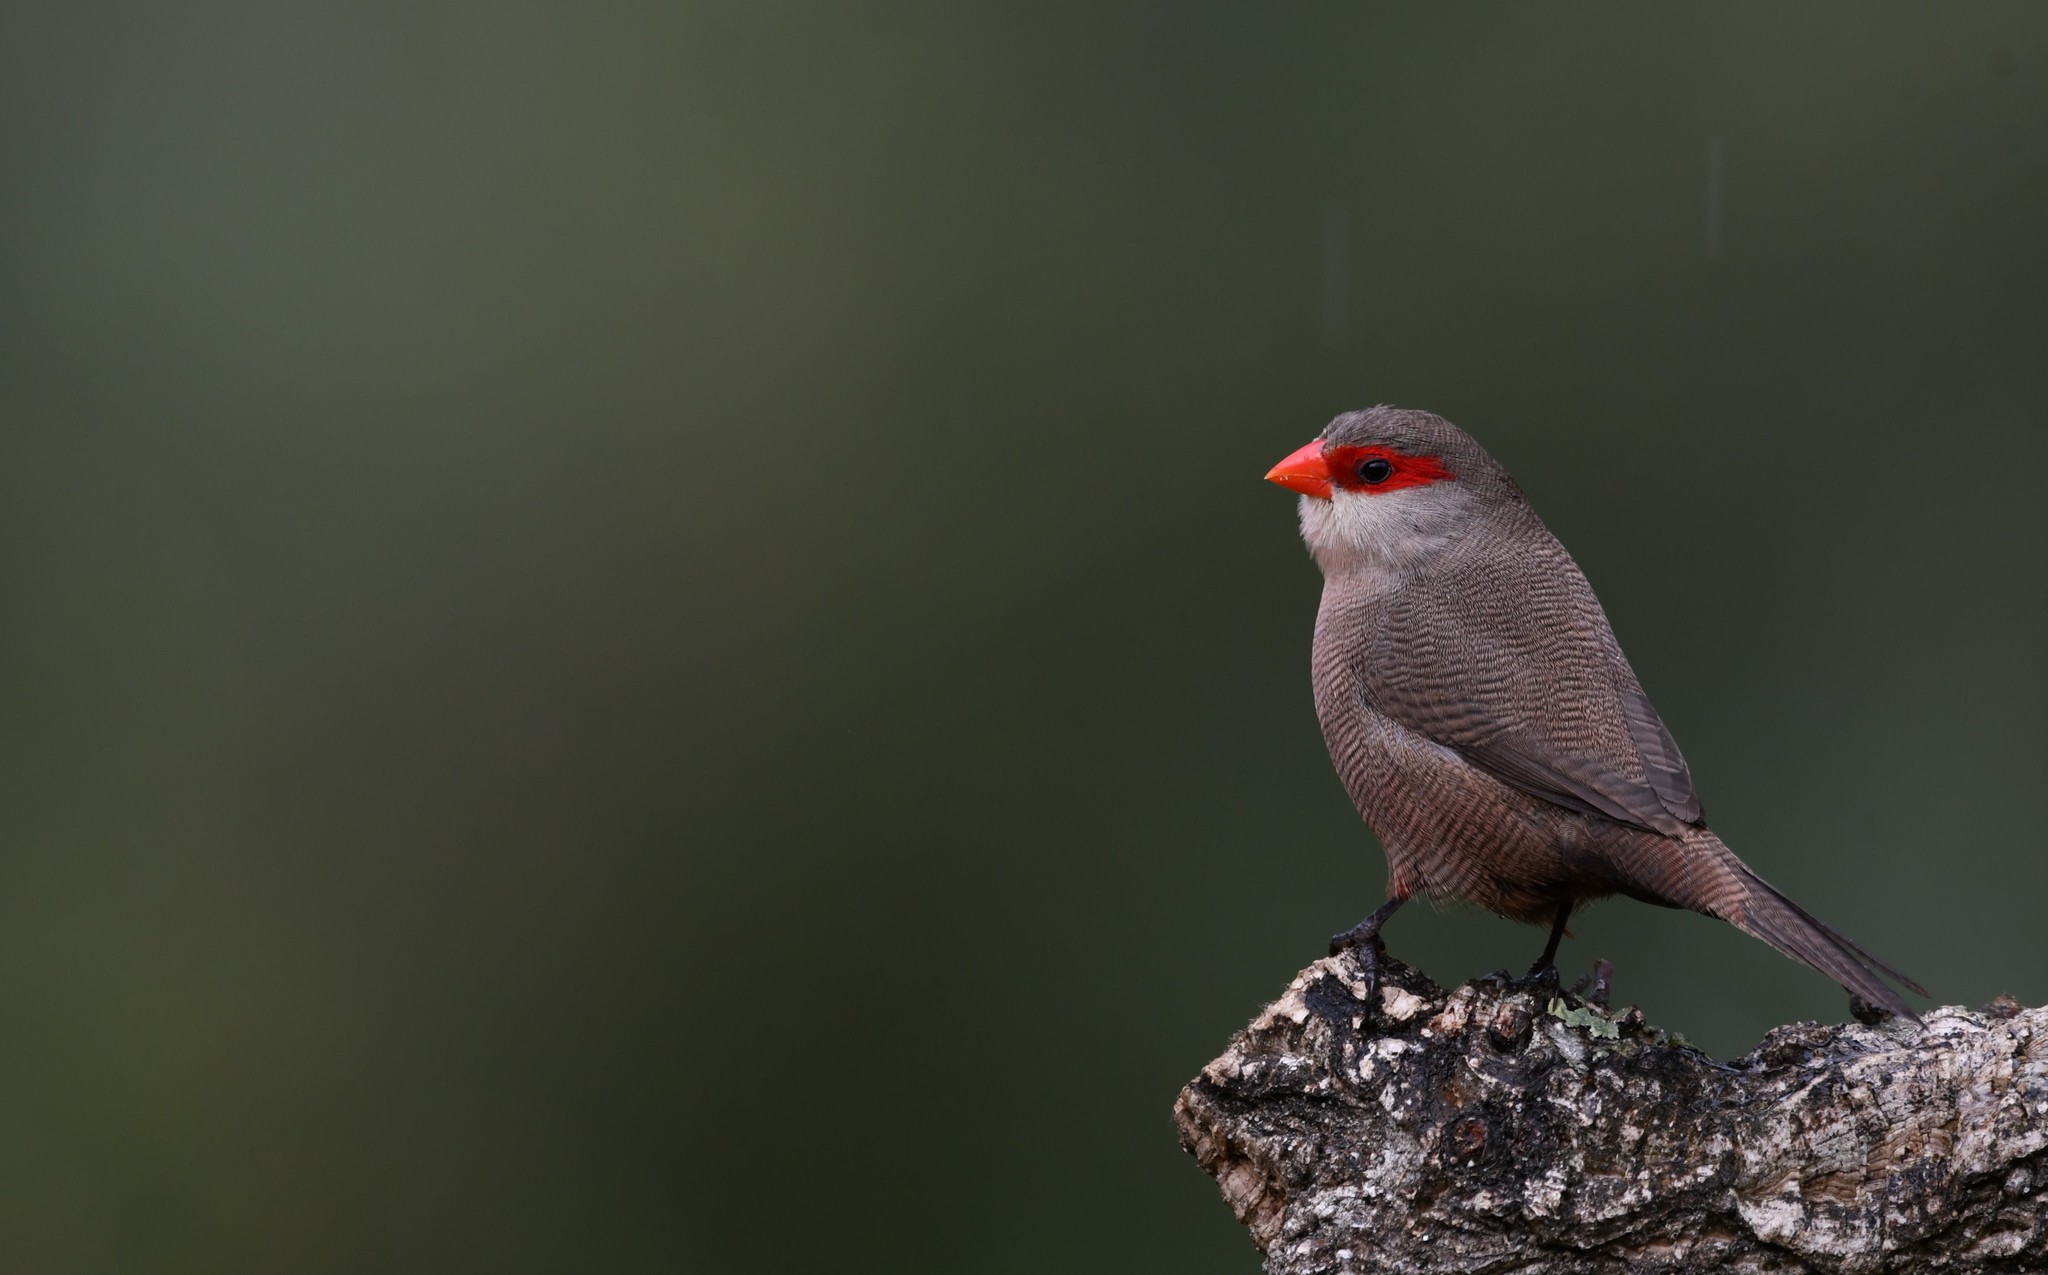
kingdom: Animalia
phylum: Chordata
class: Aves
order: Passeriformes
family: Estrildidae
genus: Estrilda
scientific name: Estrilda astrild
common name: Common waxbill
